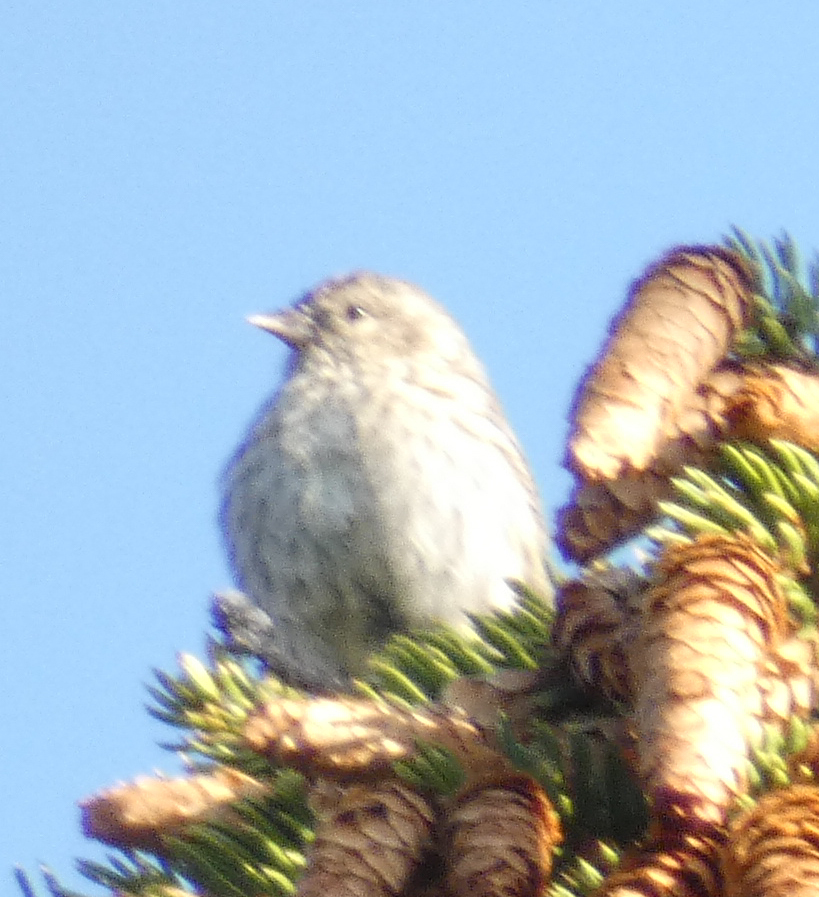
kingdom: Animalia
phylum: Chordata
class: Aves
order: Passeriformes
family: Fringillidae
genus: Spinus
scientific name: Spinus pinus
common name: Pine siskin
